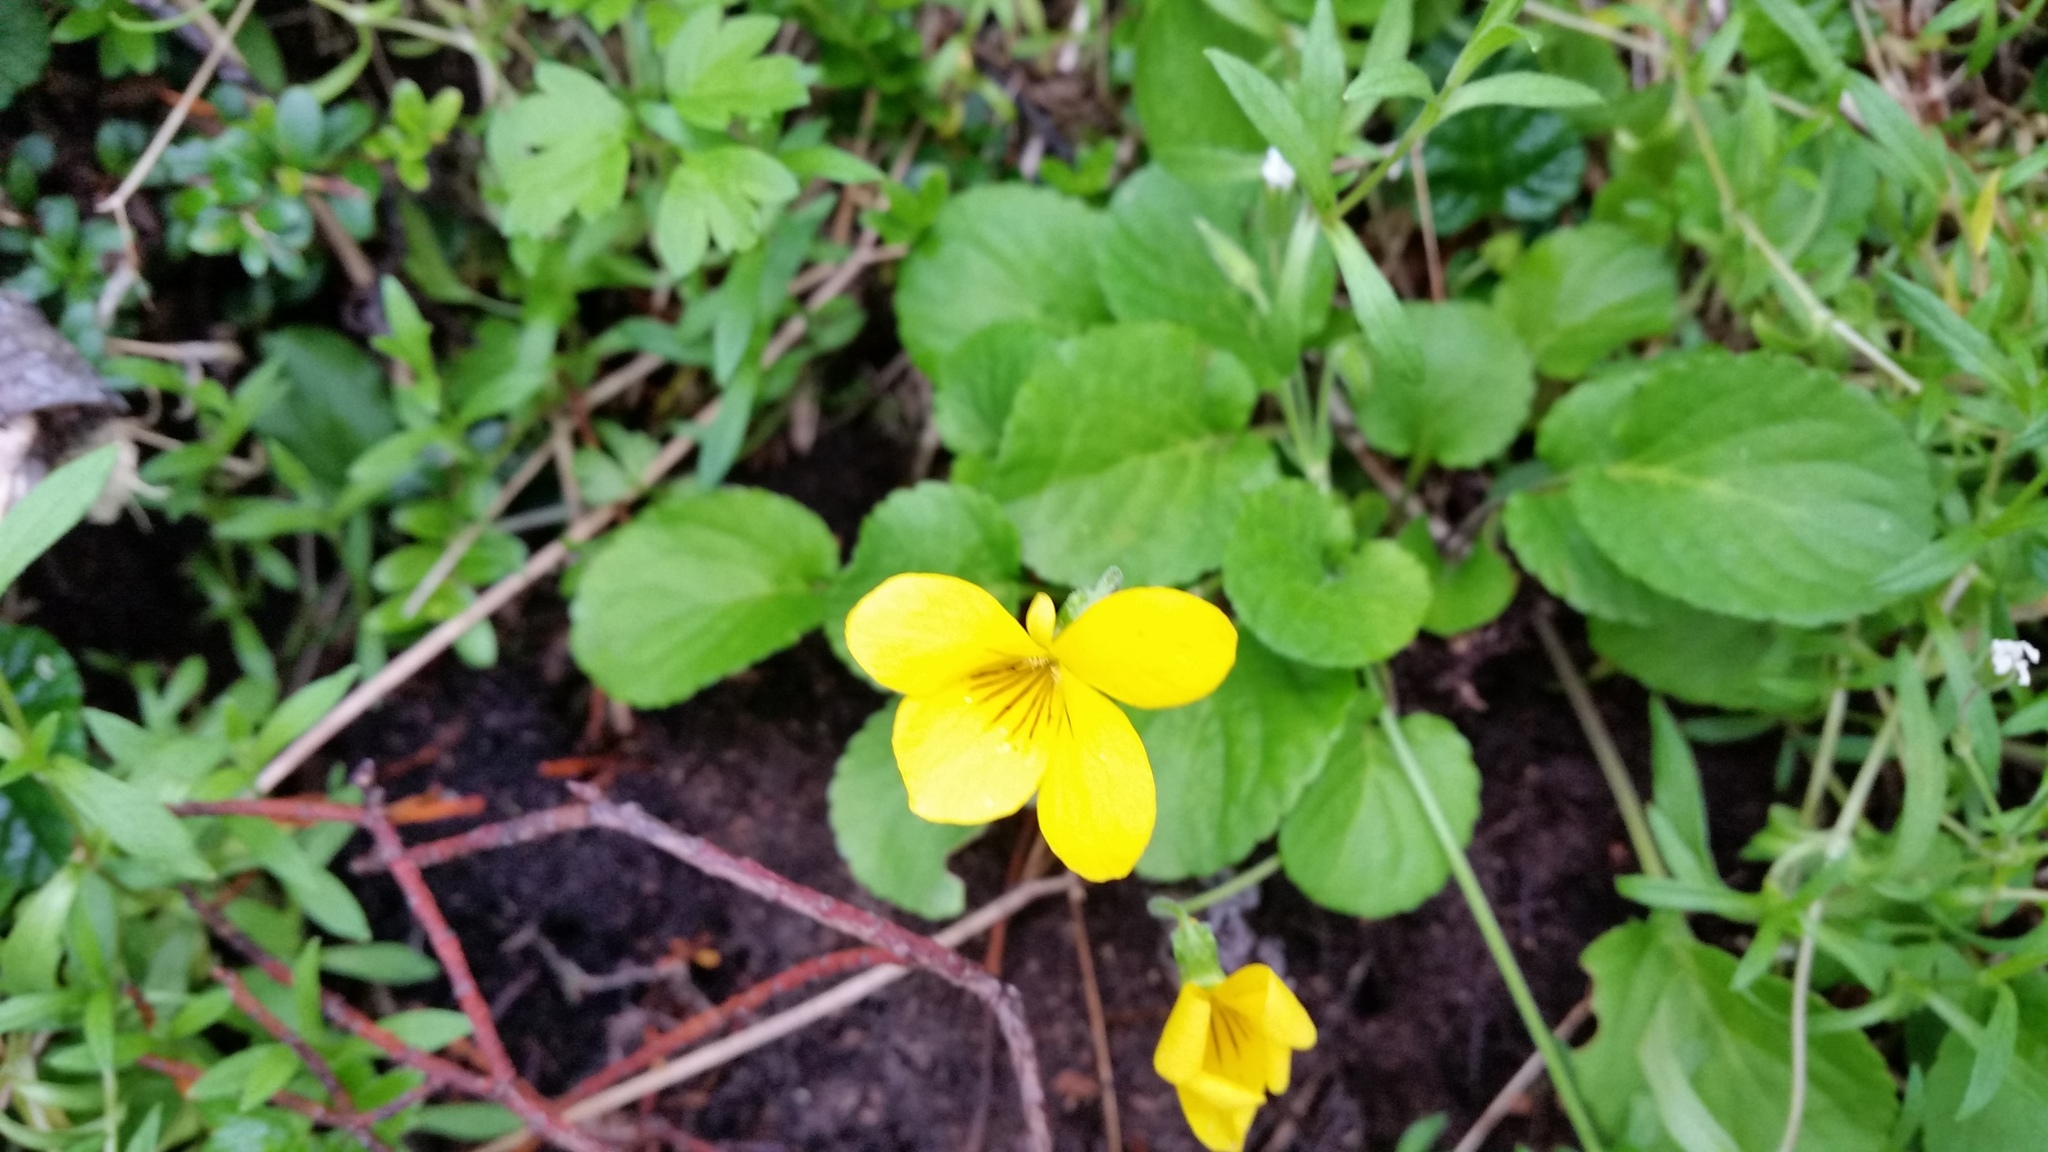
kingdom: Plantae
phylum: Tracheophyta
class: Magnoliopsida
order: Malpighiales
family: Violaceae
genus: Viola
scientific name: Viola reichei
